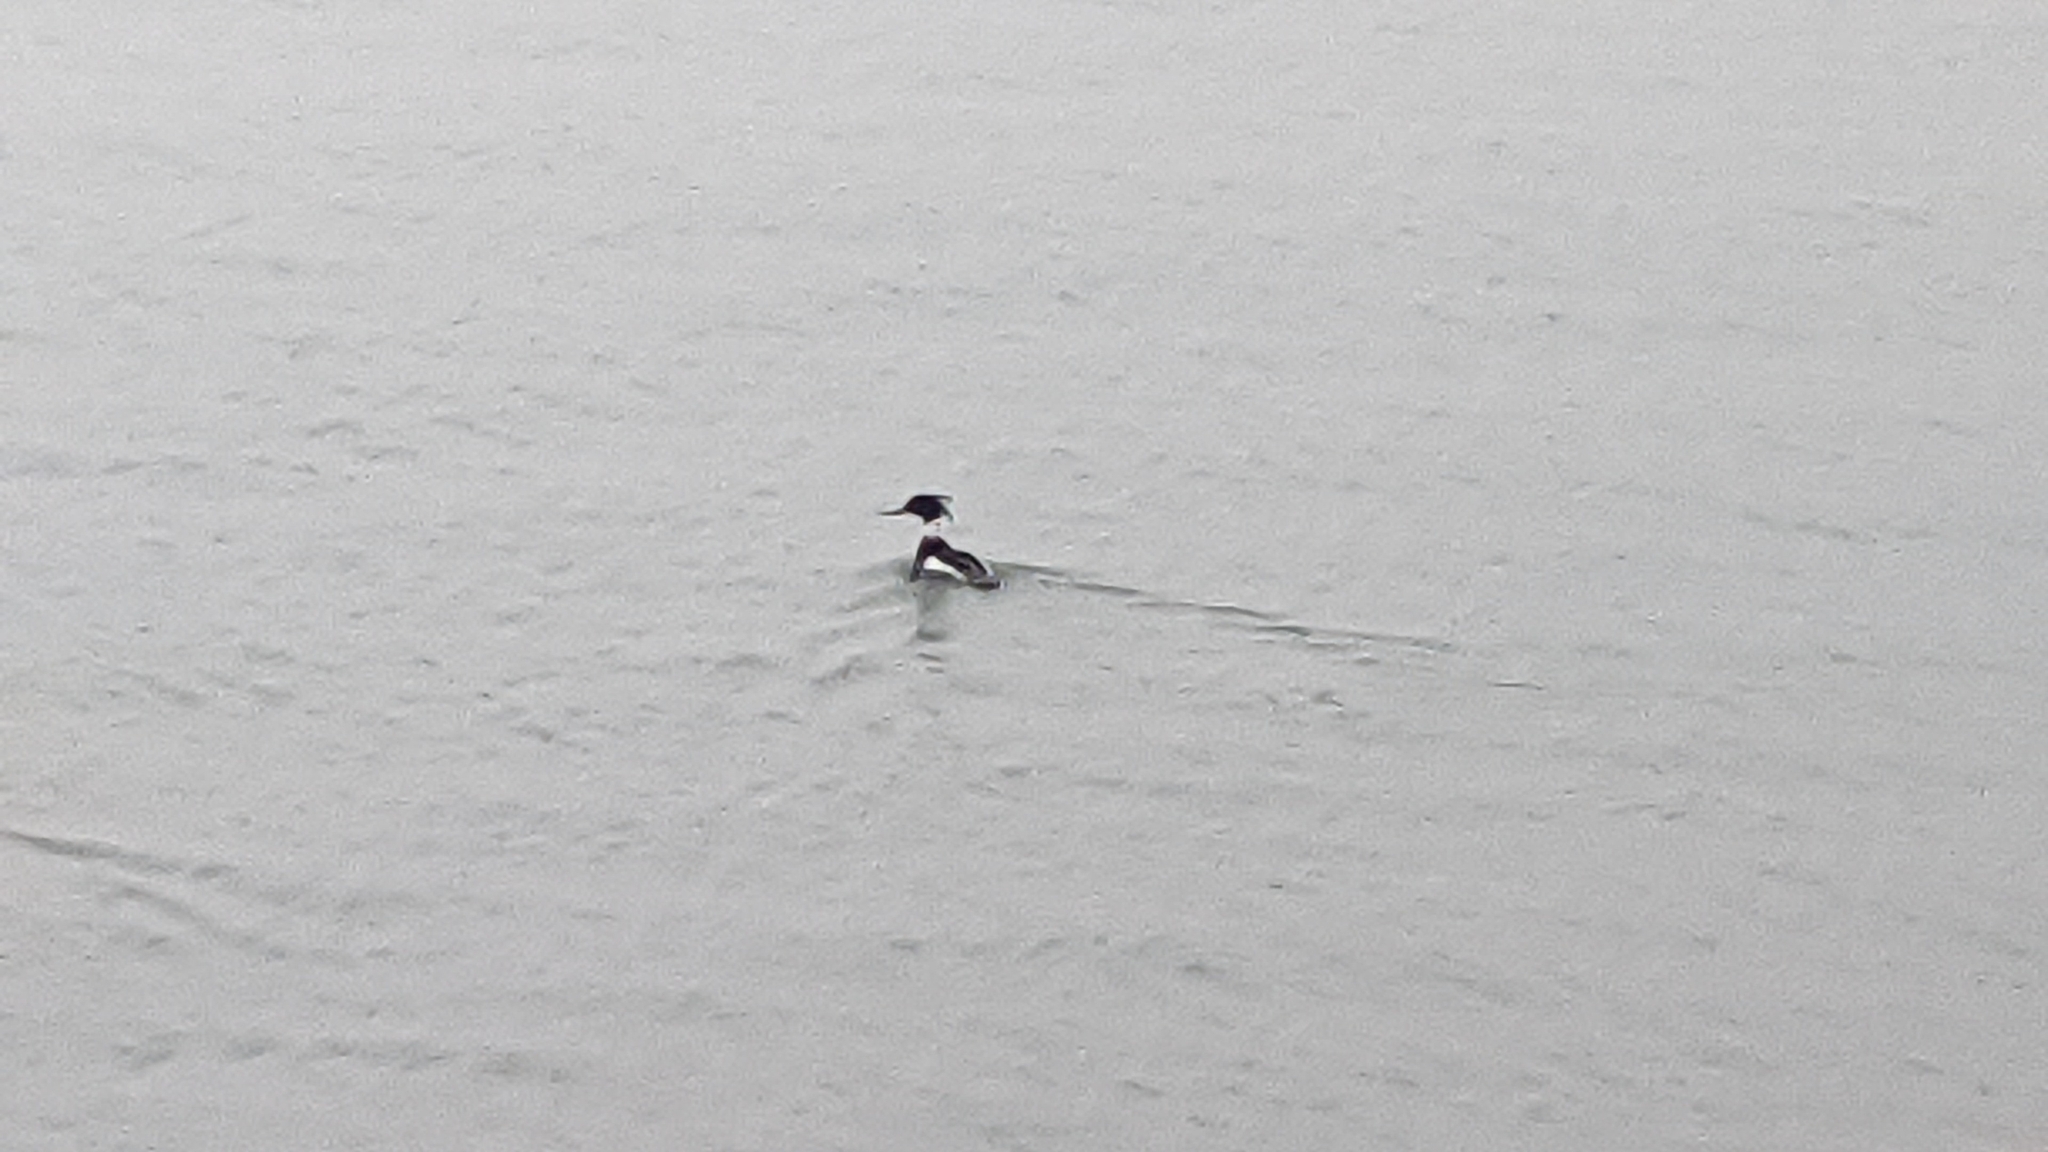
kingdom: Animalia
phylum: Chordata
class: Aves
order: Anseriformes
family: Anatidae
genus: Mergus
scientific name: Mergus serrator
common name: Red-breasted merganser
